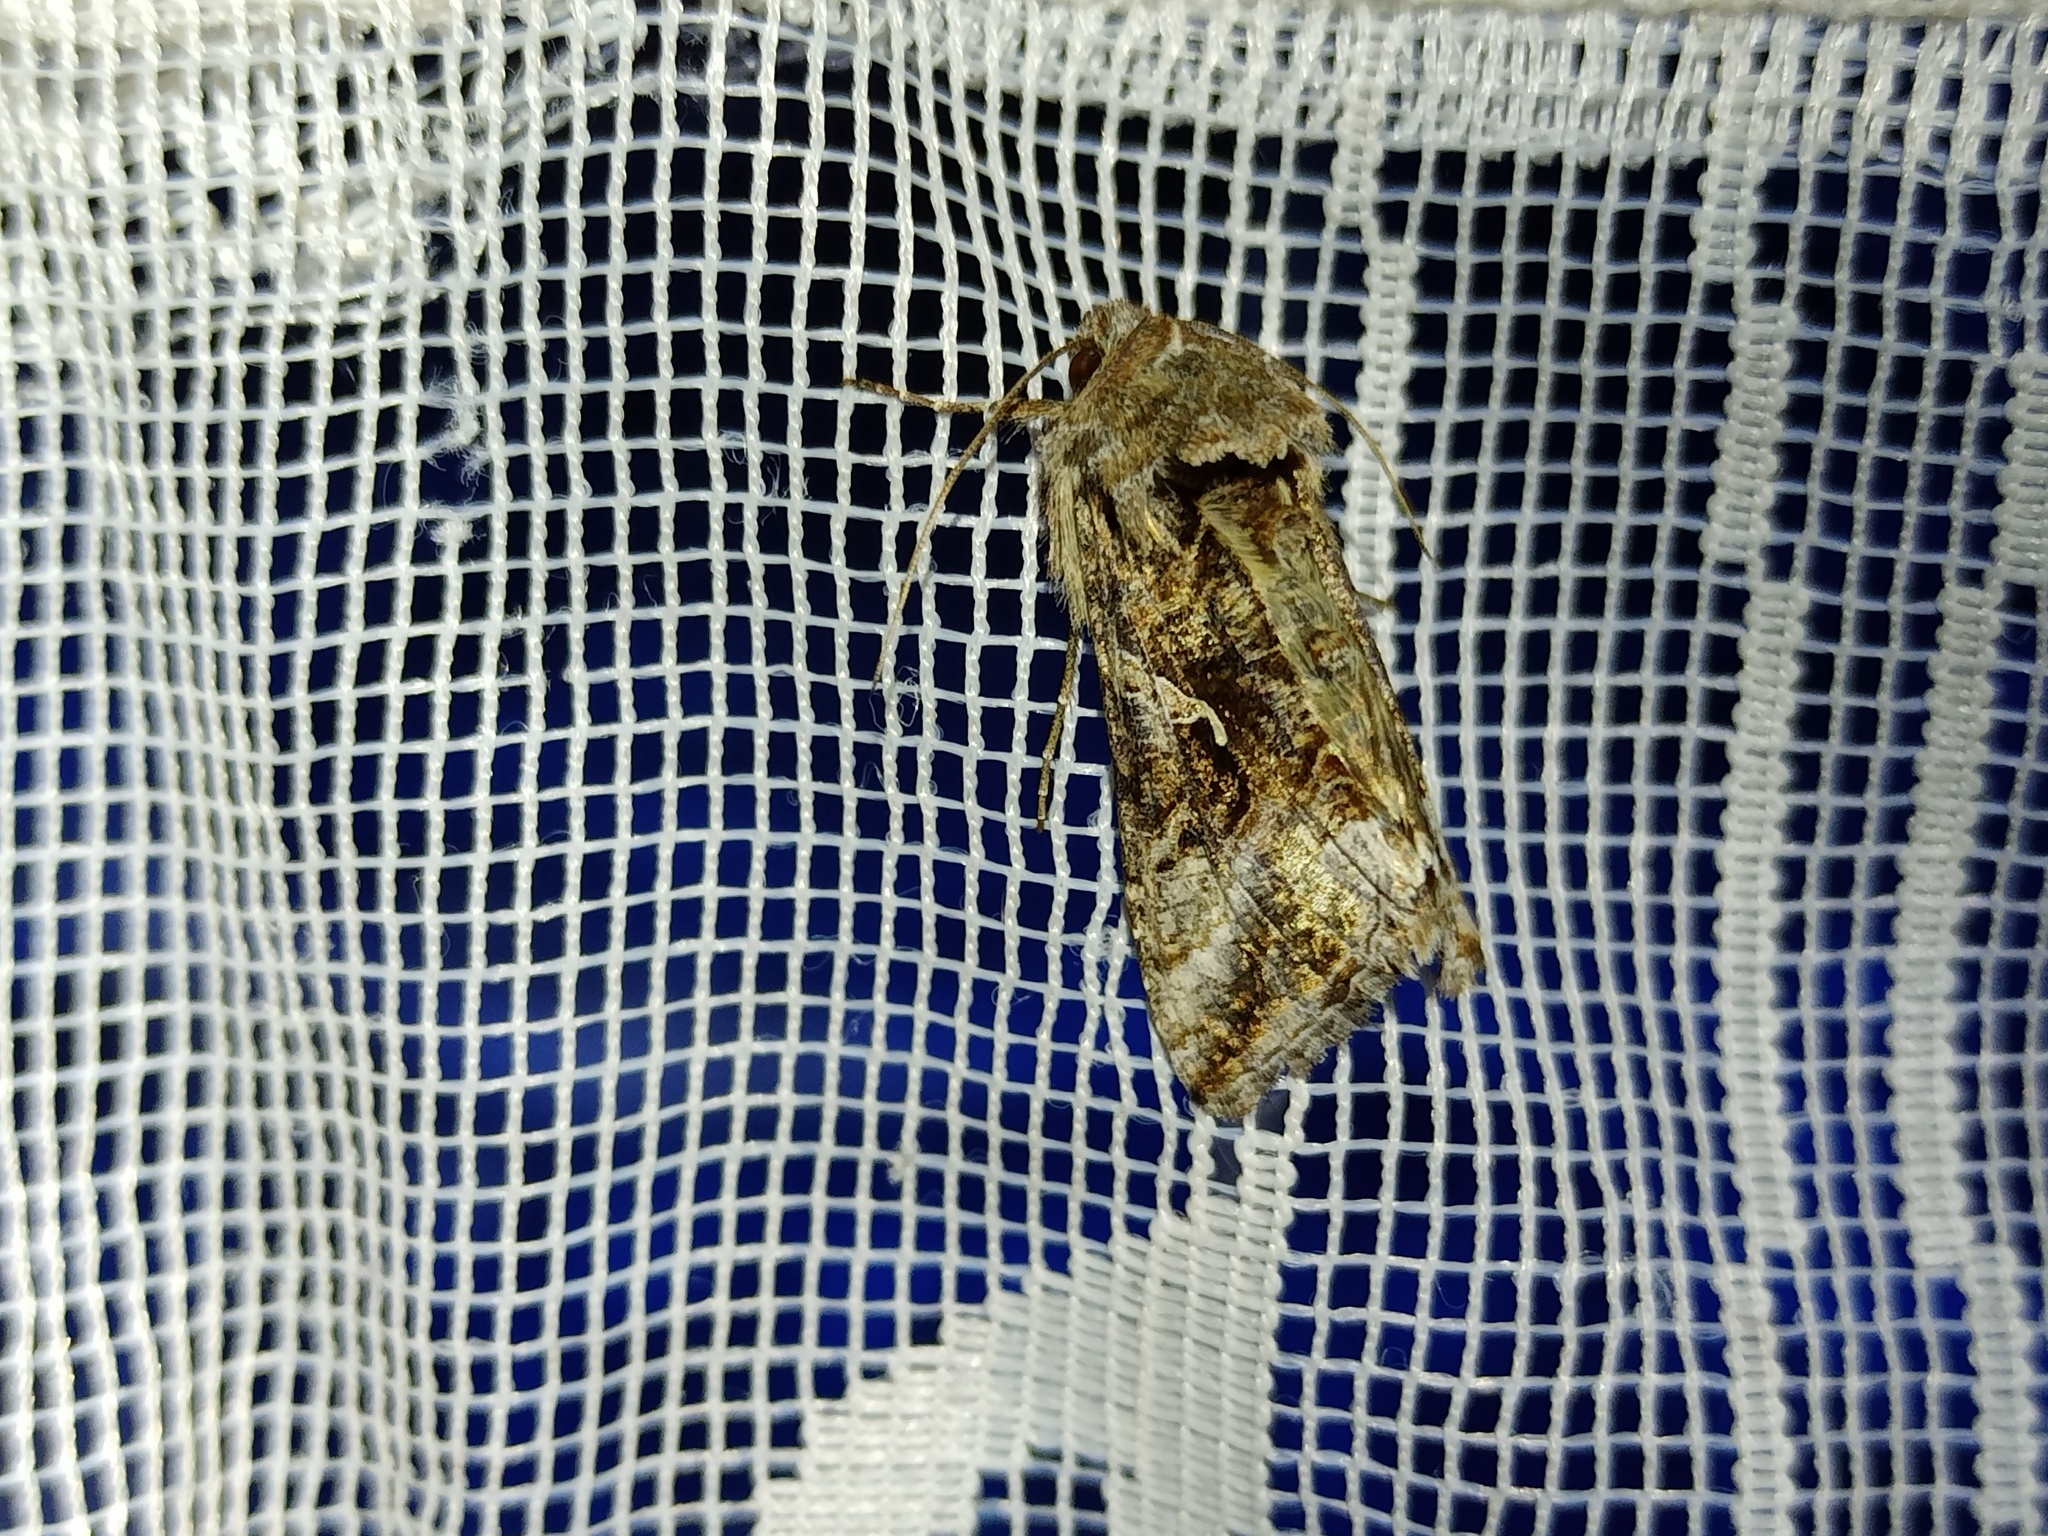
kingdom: Animalia
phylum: Arthropoda
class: Insecta
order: Lepidoptera
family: Noctuidae
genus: Autographa
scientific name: Autographa gamma
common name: Silver y
